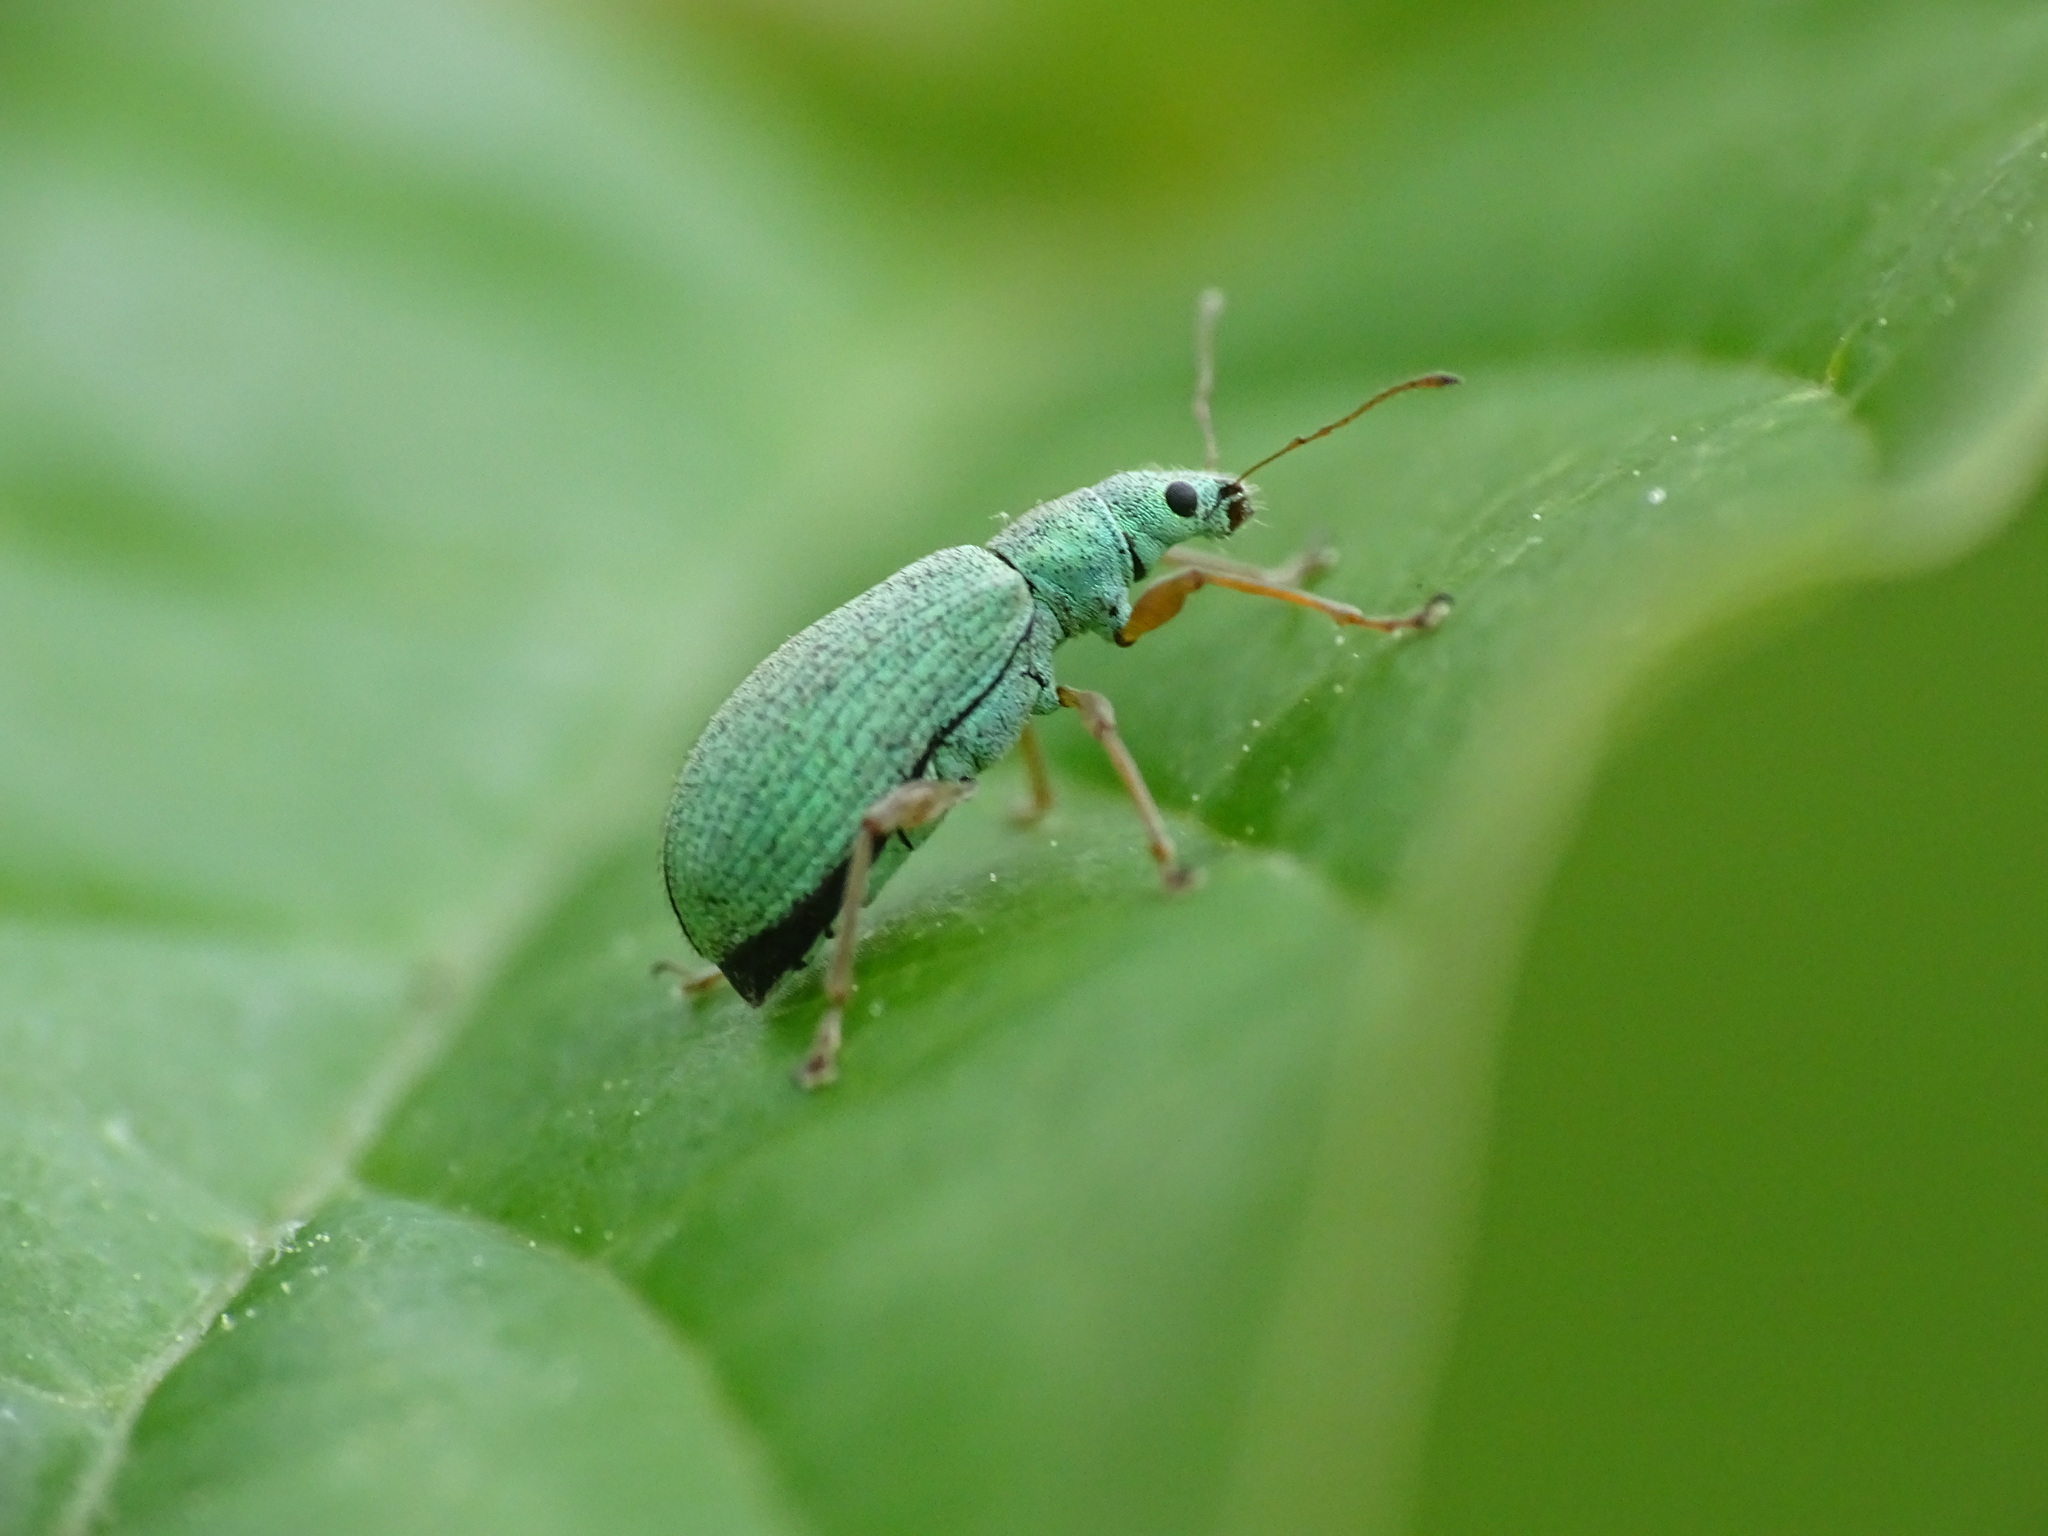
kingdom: Animalia
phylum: Arthropoda
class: Insecta
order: Coleoptera
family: Curculionidae
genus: Polydrusus
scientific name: Polydrusus impressifrons
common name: Weevil
